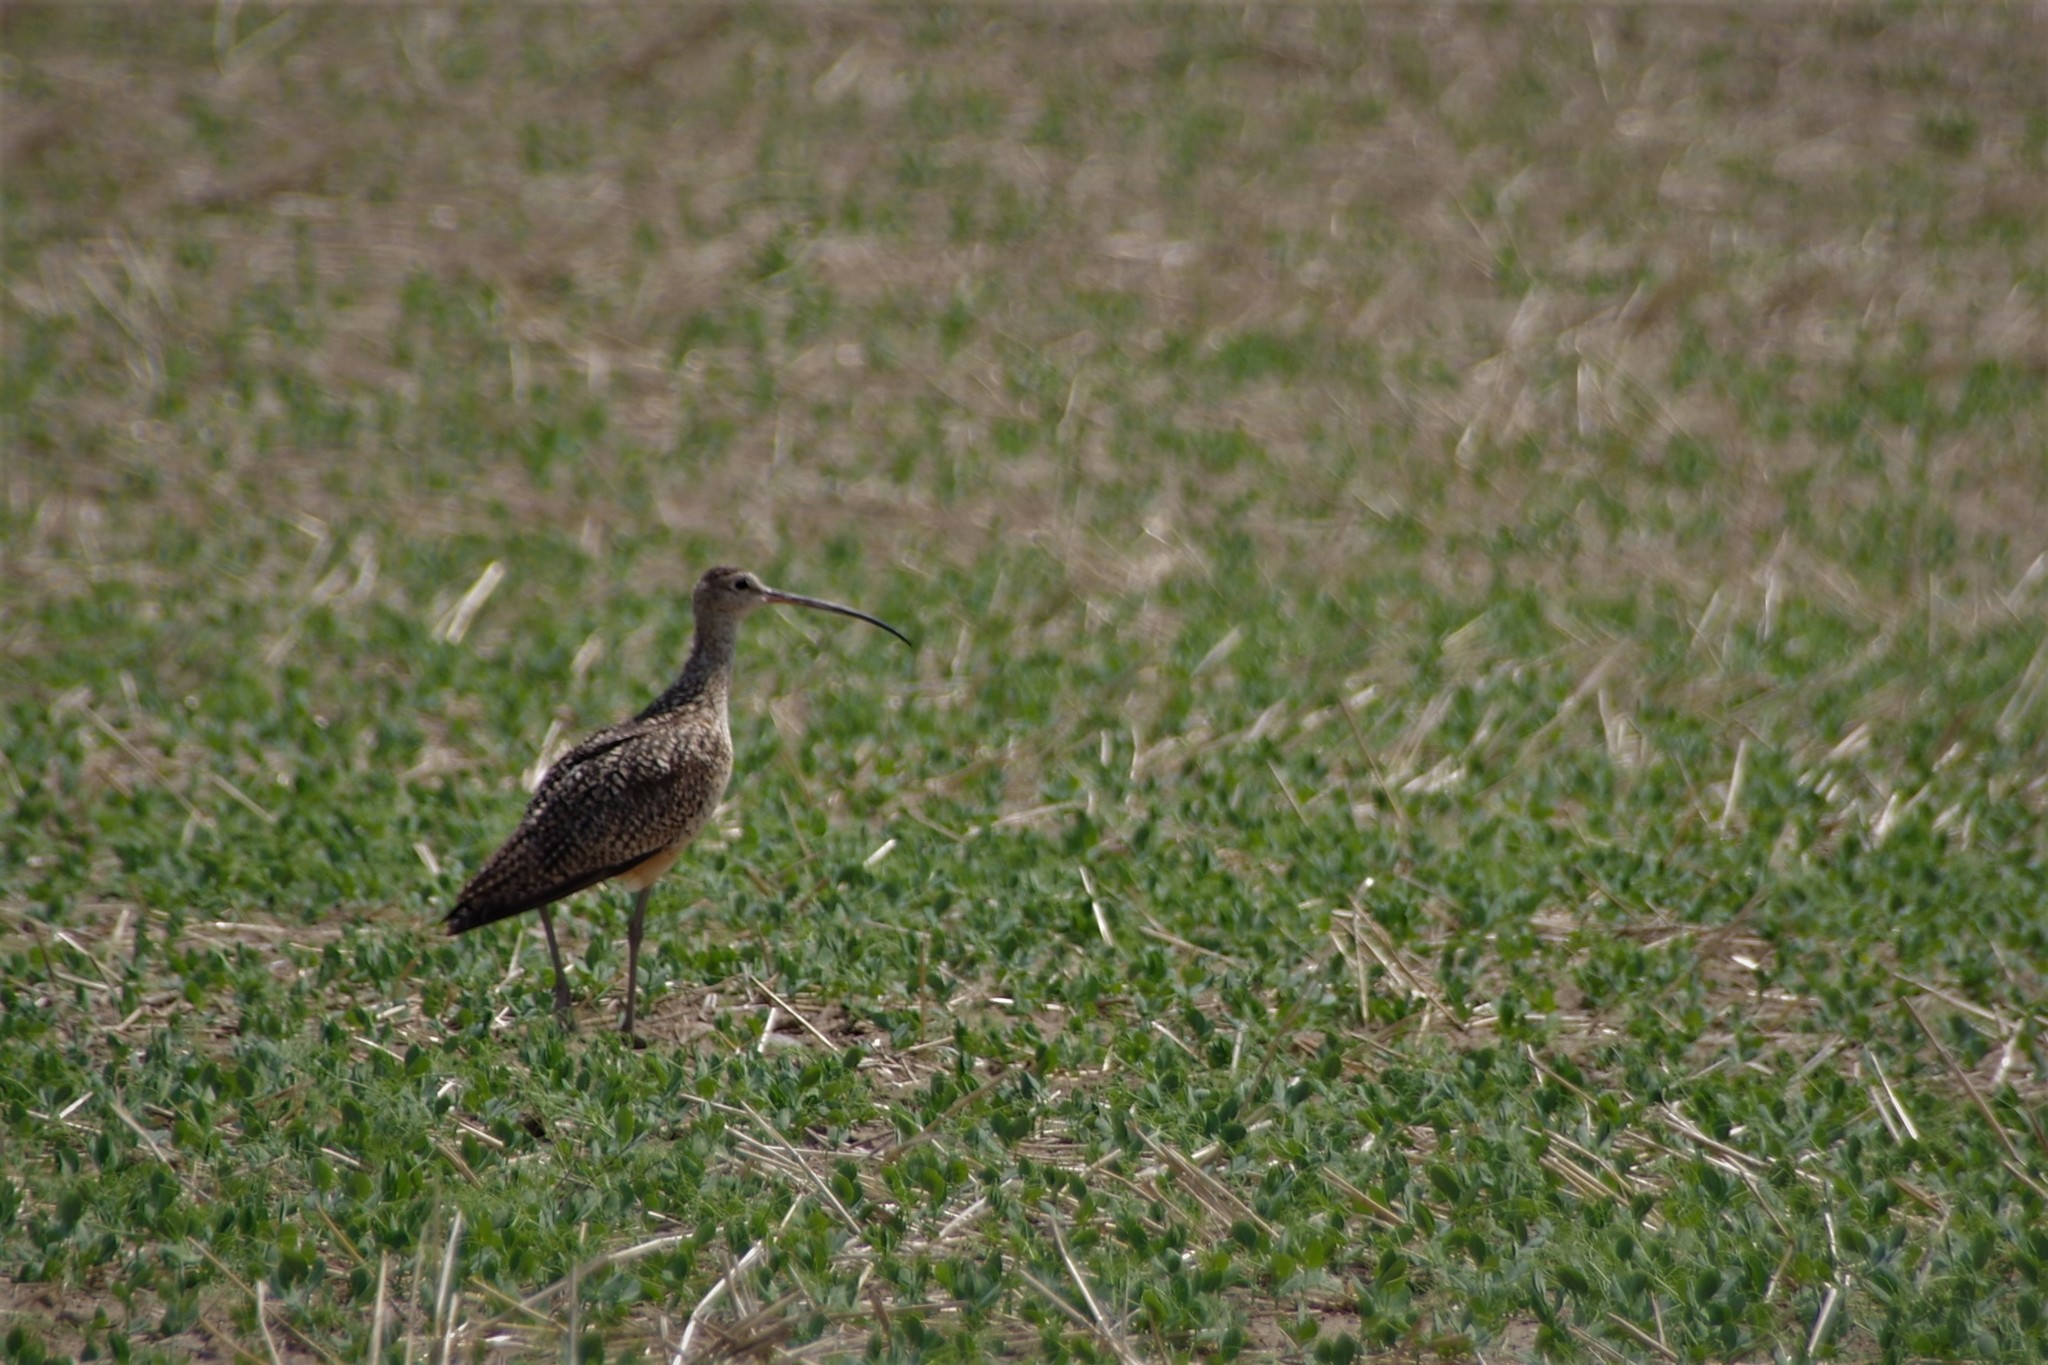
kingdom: Animalia
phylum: Chordata
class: Aves
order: Charadriiformes
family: Scolopacidae
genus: Numenius
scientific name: Numenius americanus
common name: Long-billed curlew
